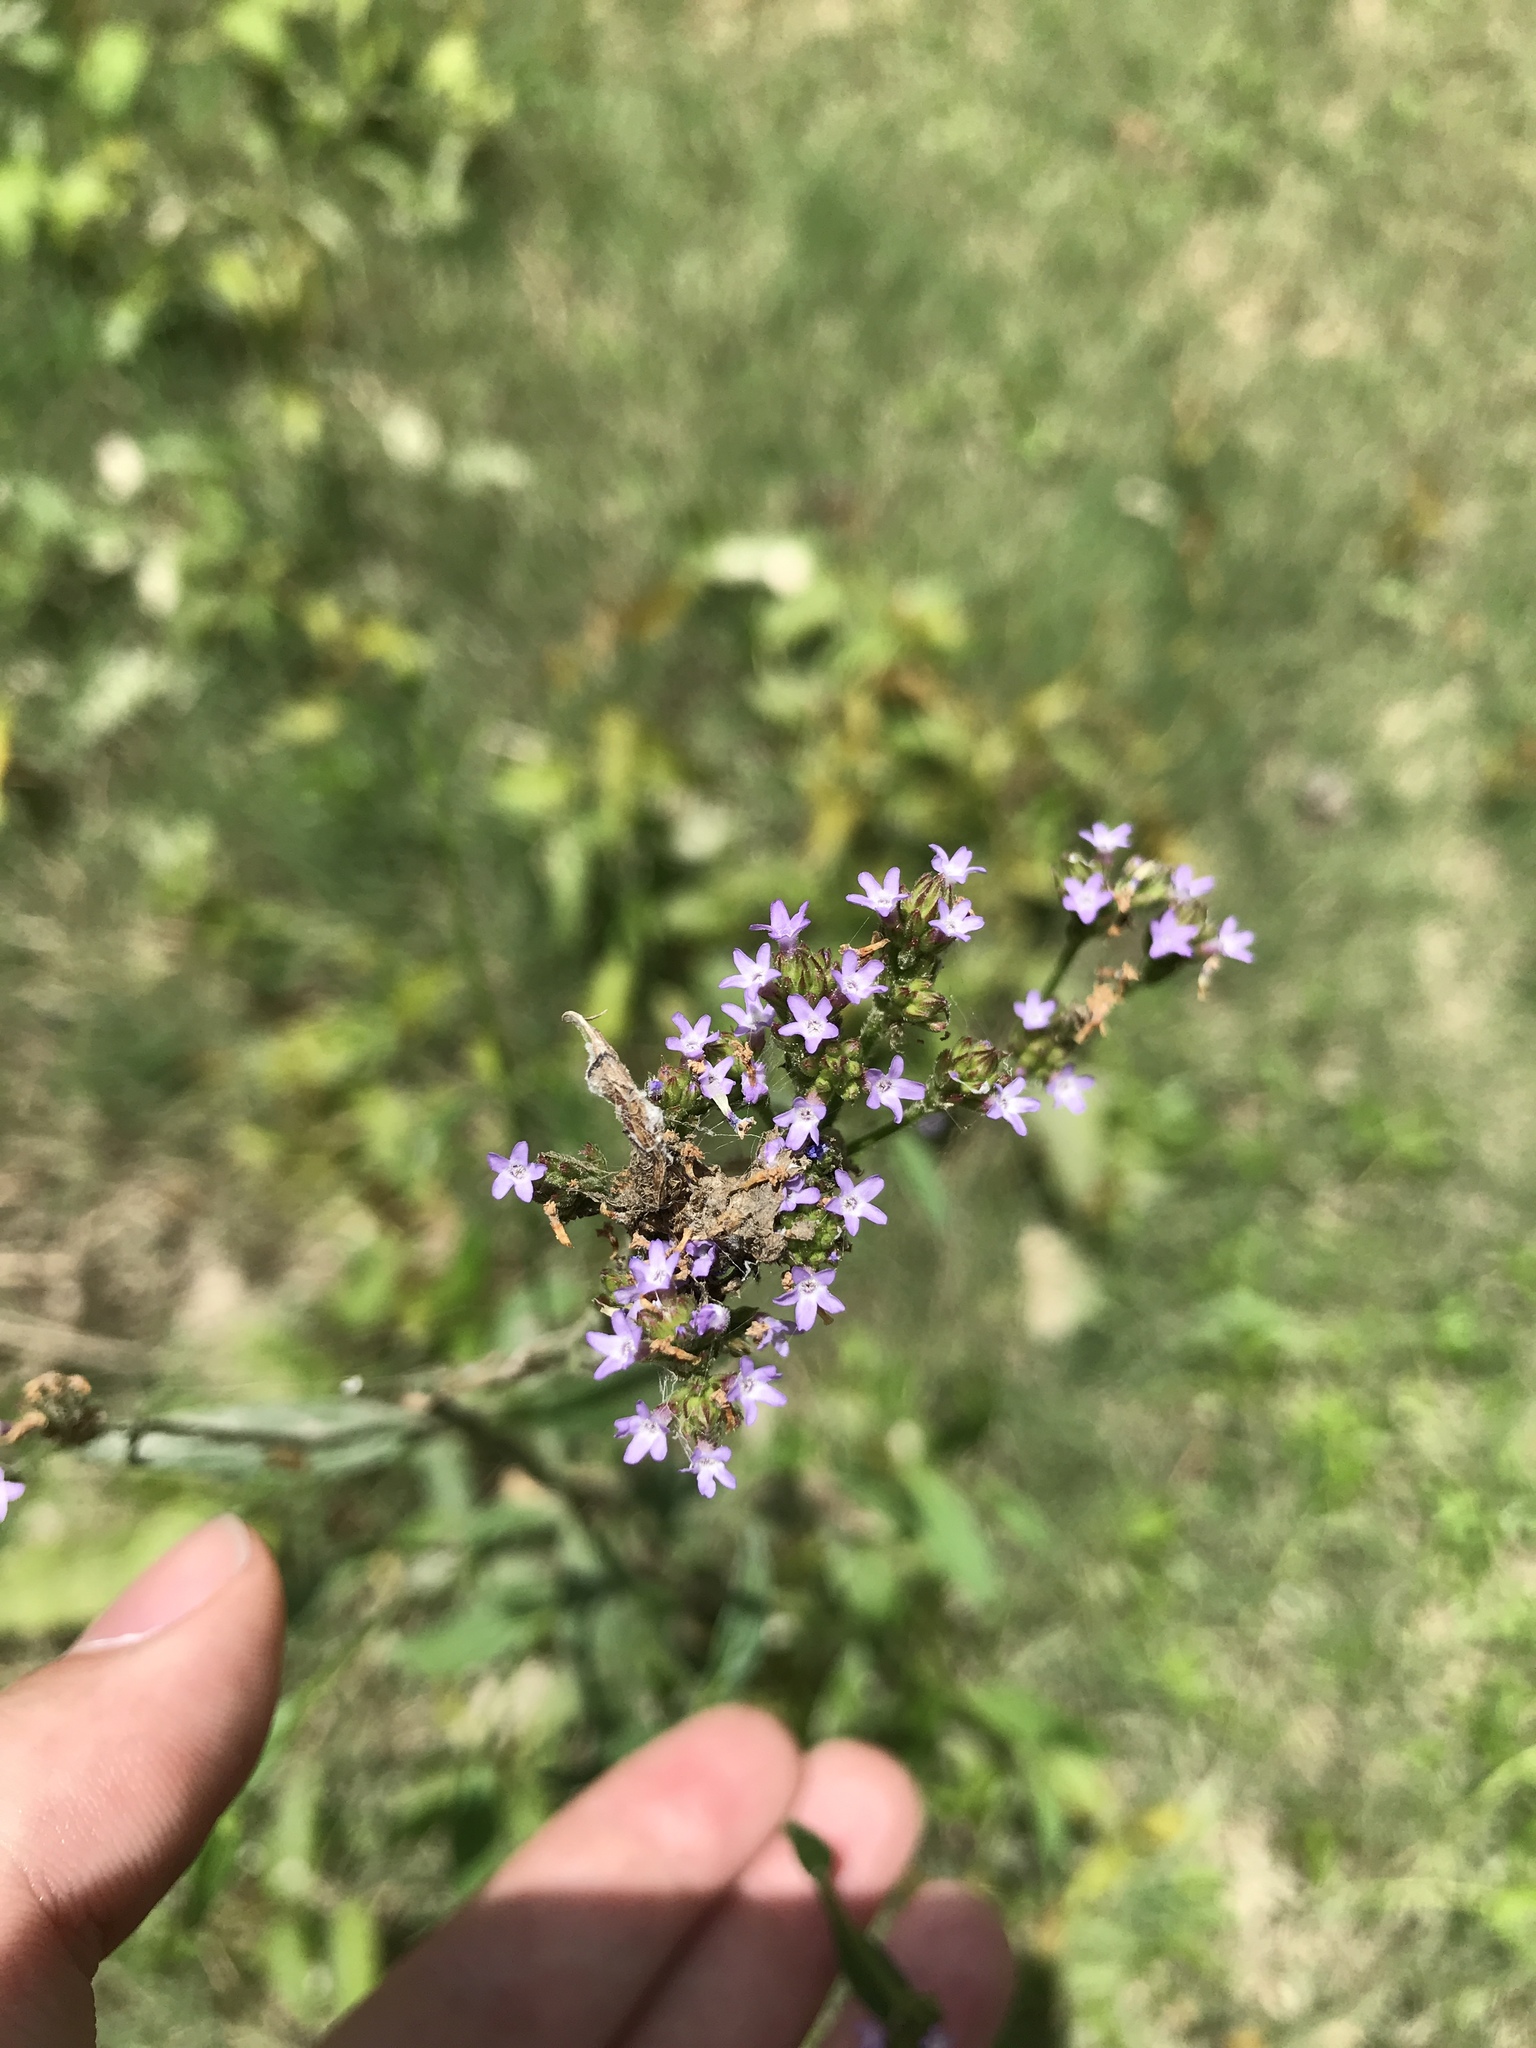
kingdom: Plantae
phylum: Tracheophyta
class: Magnoliopsida
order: Lamiales
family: Verbenaceae
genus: Verbena
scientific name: Verbena brasiliensis
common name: Brazilian vervain
